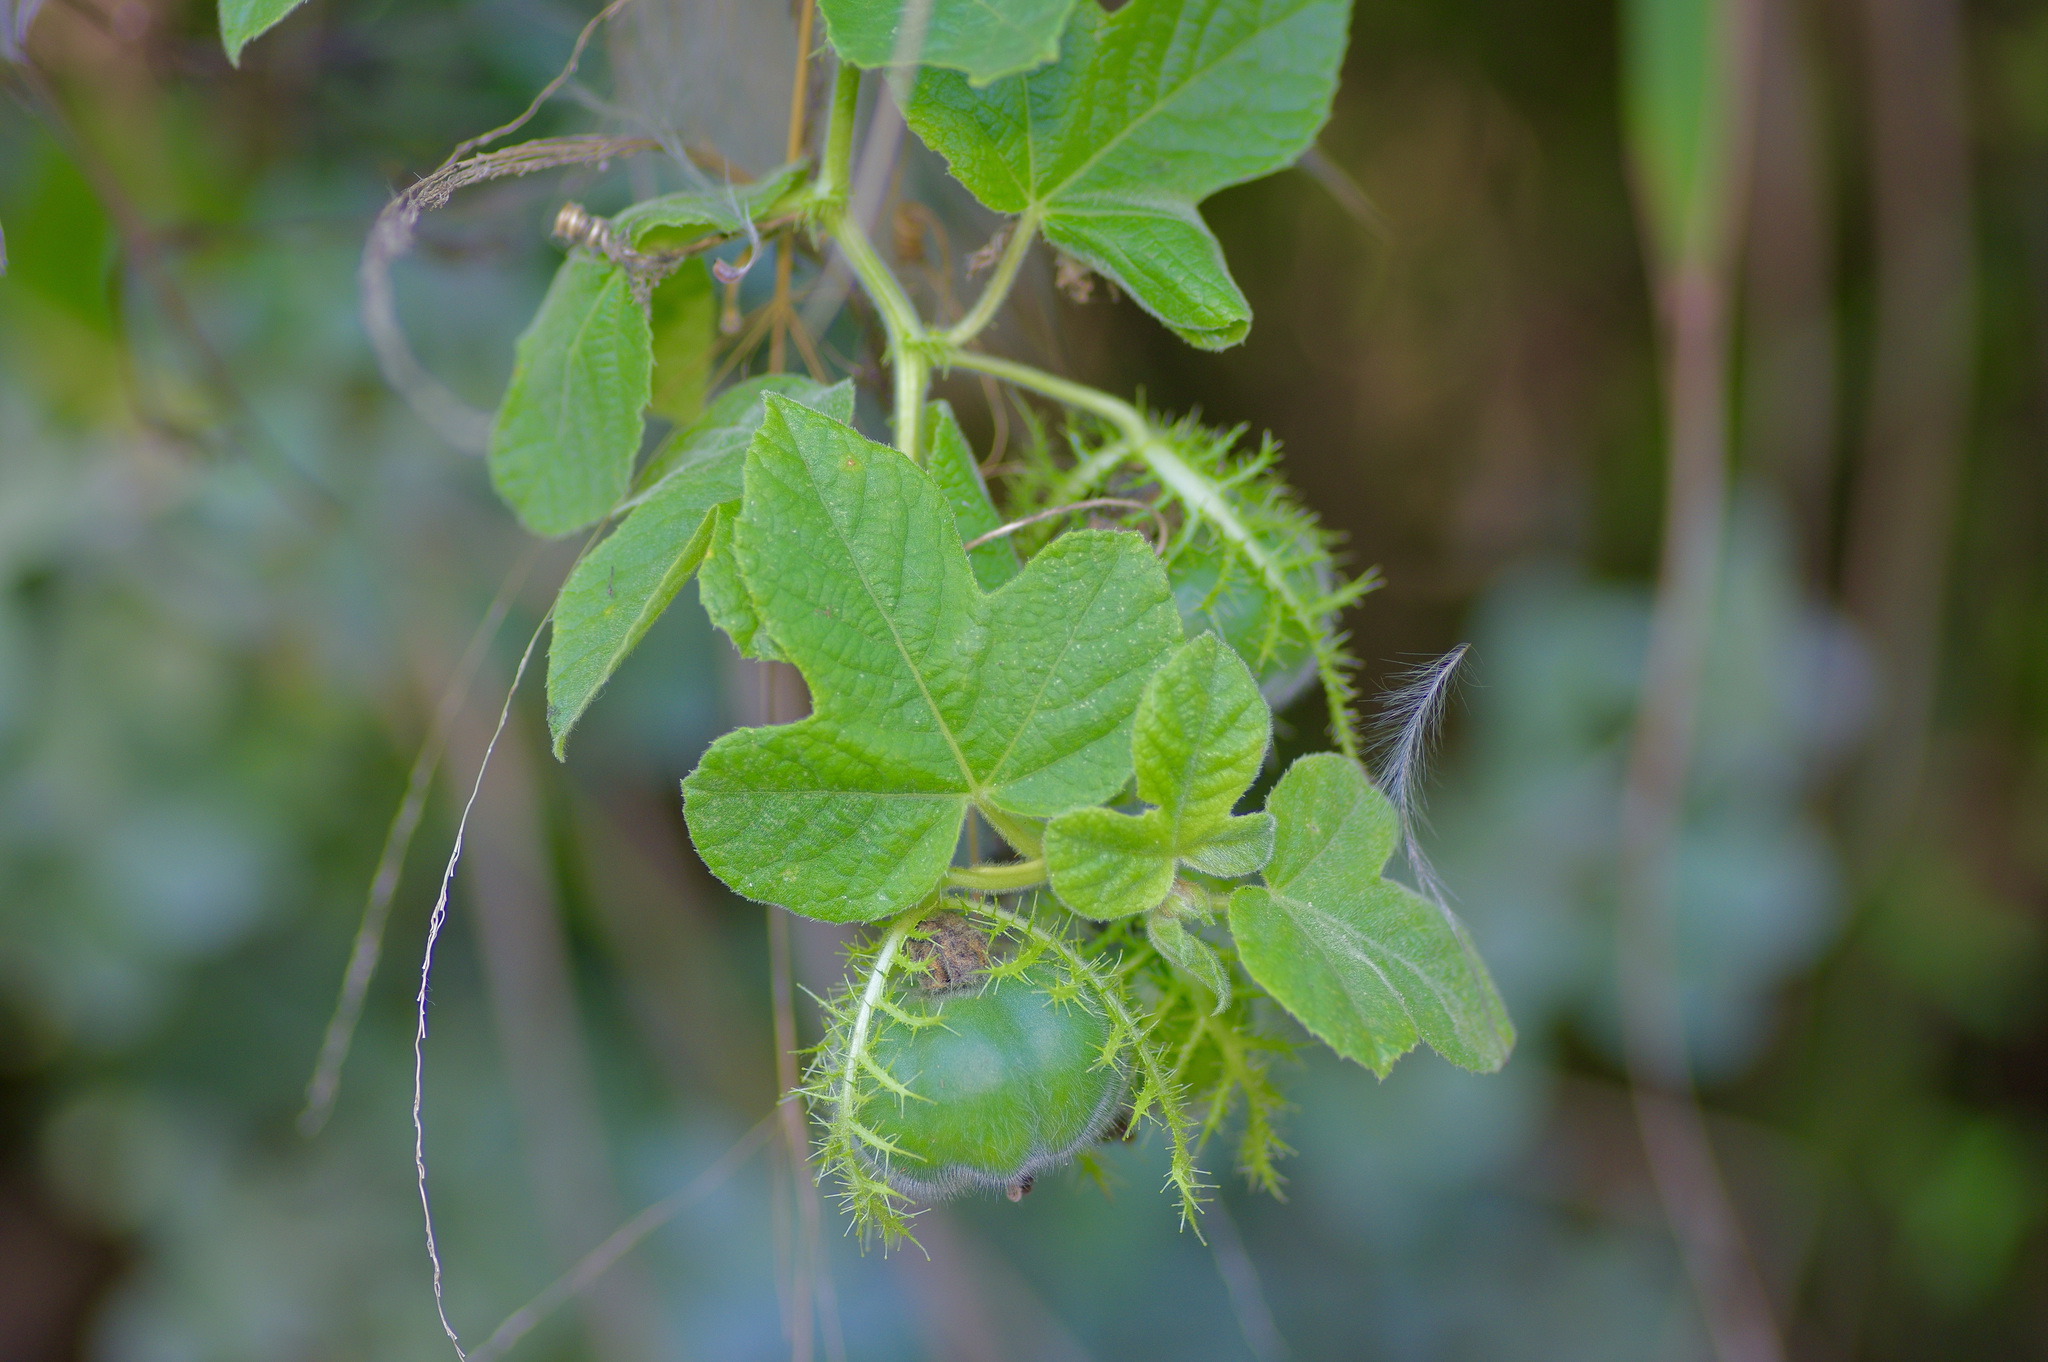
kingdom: Plantae
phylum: Tracheophyta
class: Magnoliopsida
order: Malpighiales
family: Passifloraceae
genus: Passiflora
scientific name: Passiflora foetida
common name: Fetid passionflower
